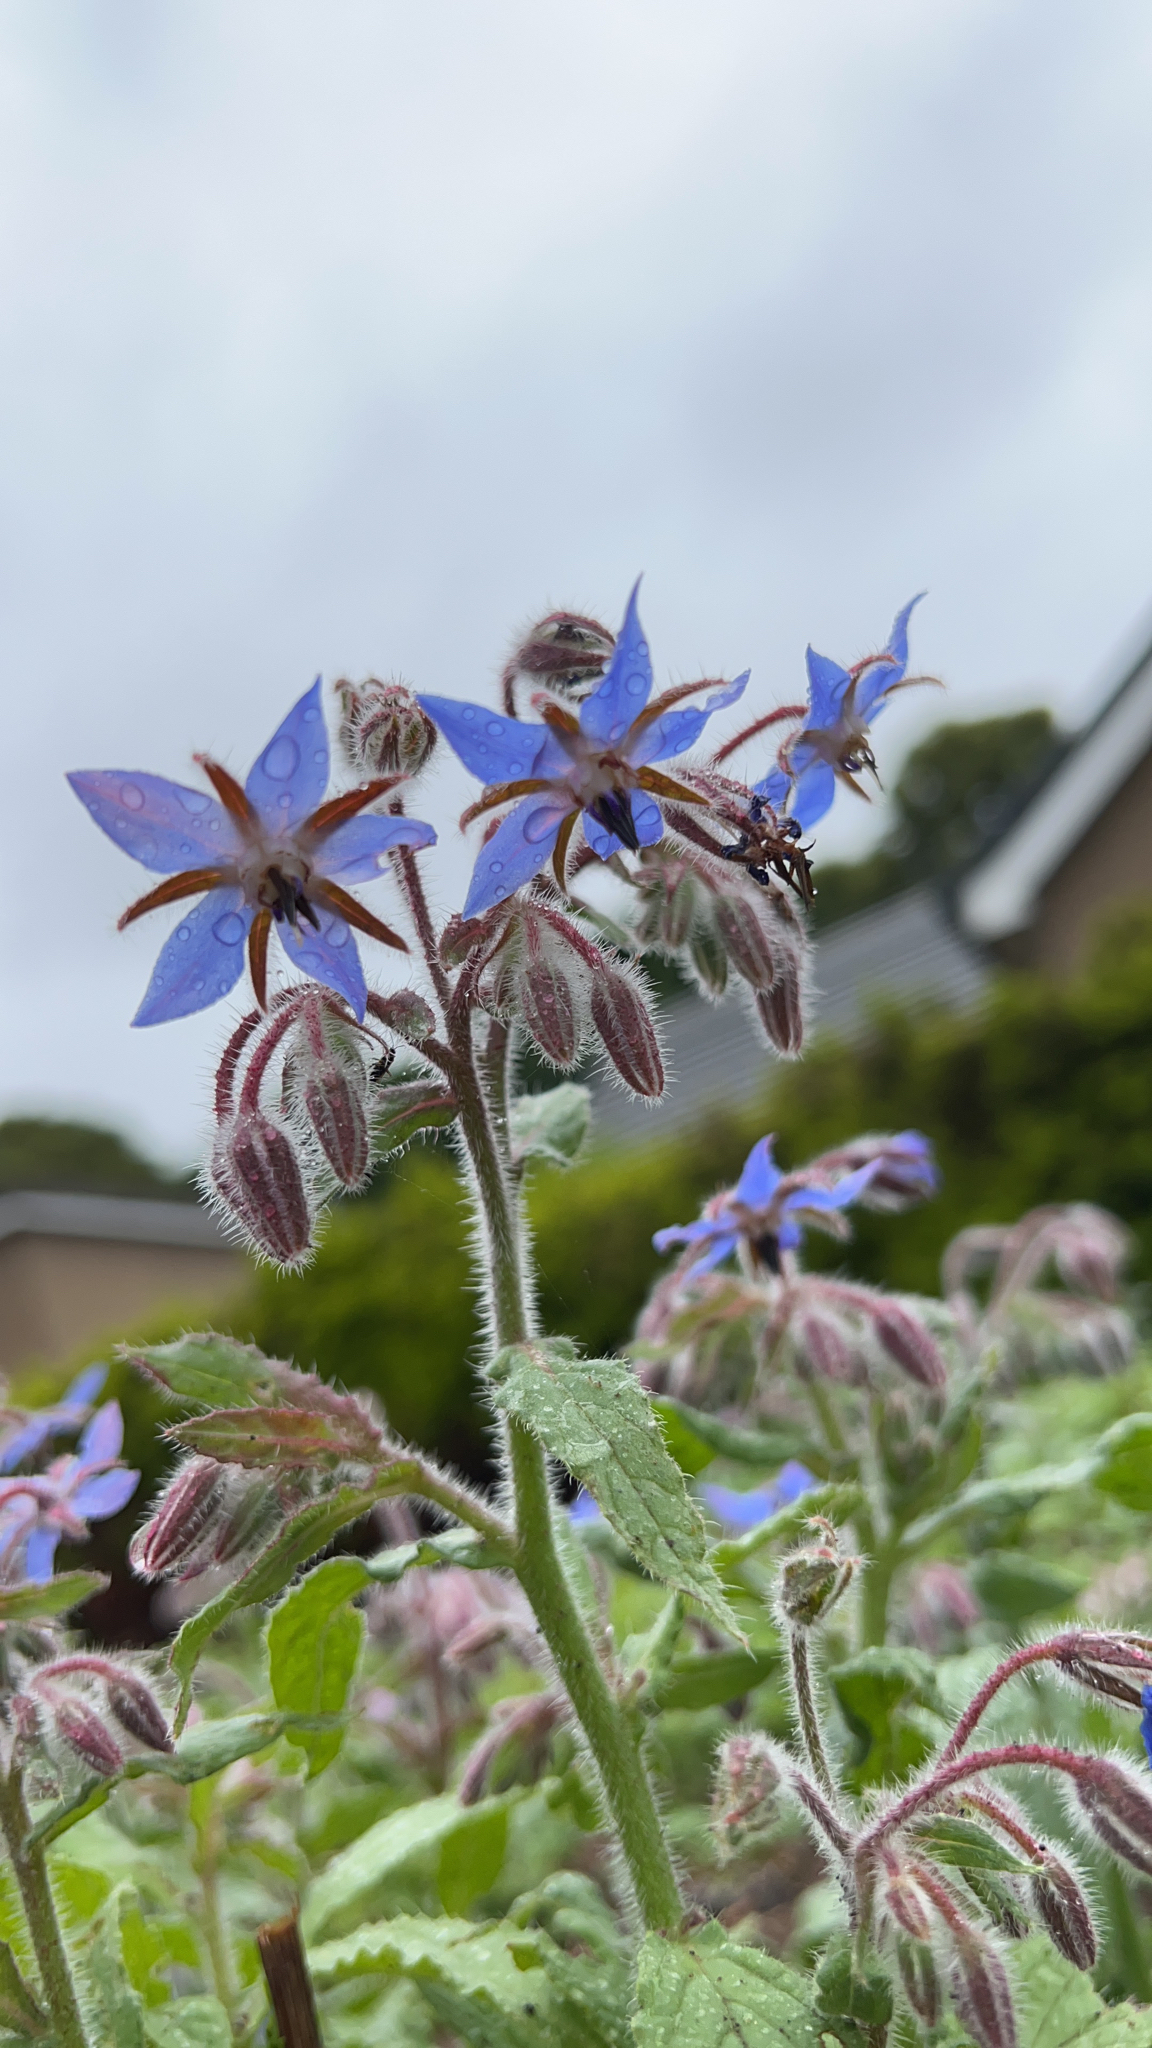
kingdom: Plantae
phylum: Tracheophyta
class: Magnoliopsida
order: Boraginales
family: Boraginaceae
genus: Borago
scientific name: Borago officinalis
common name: Borage
